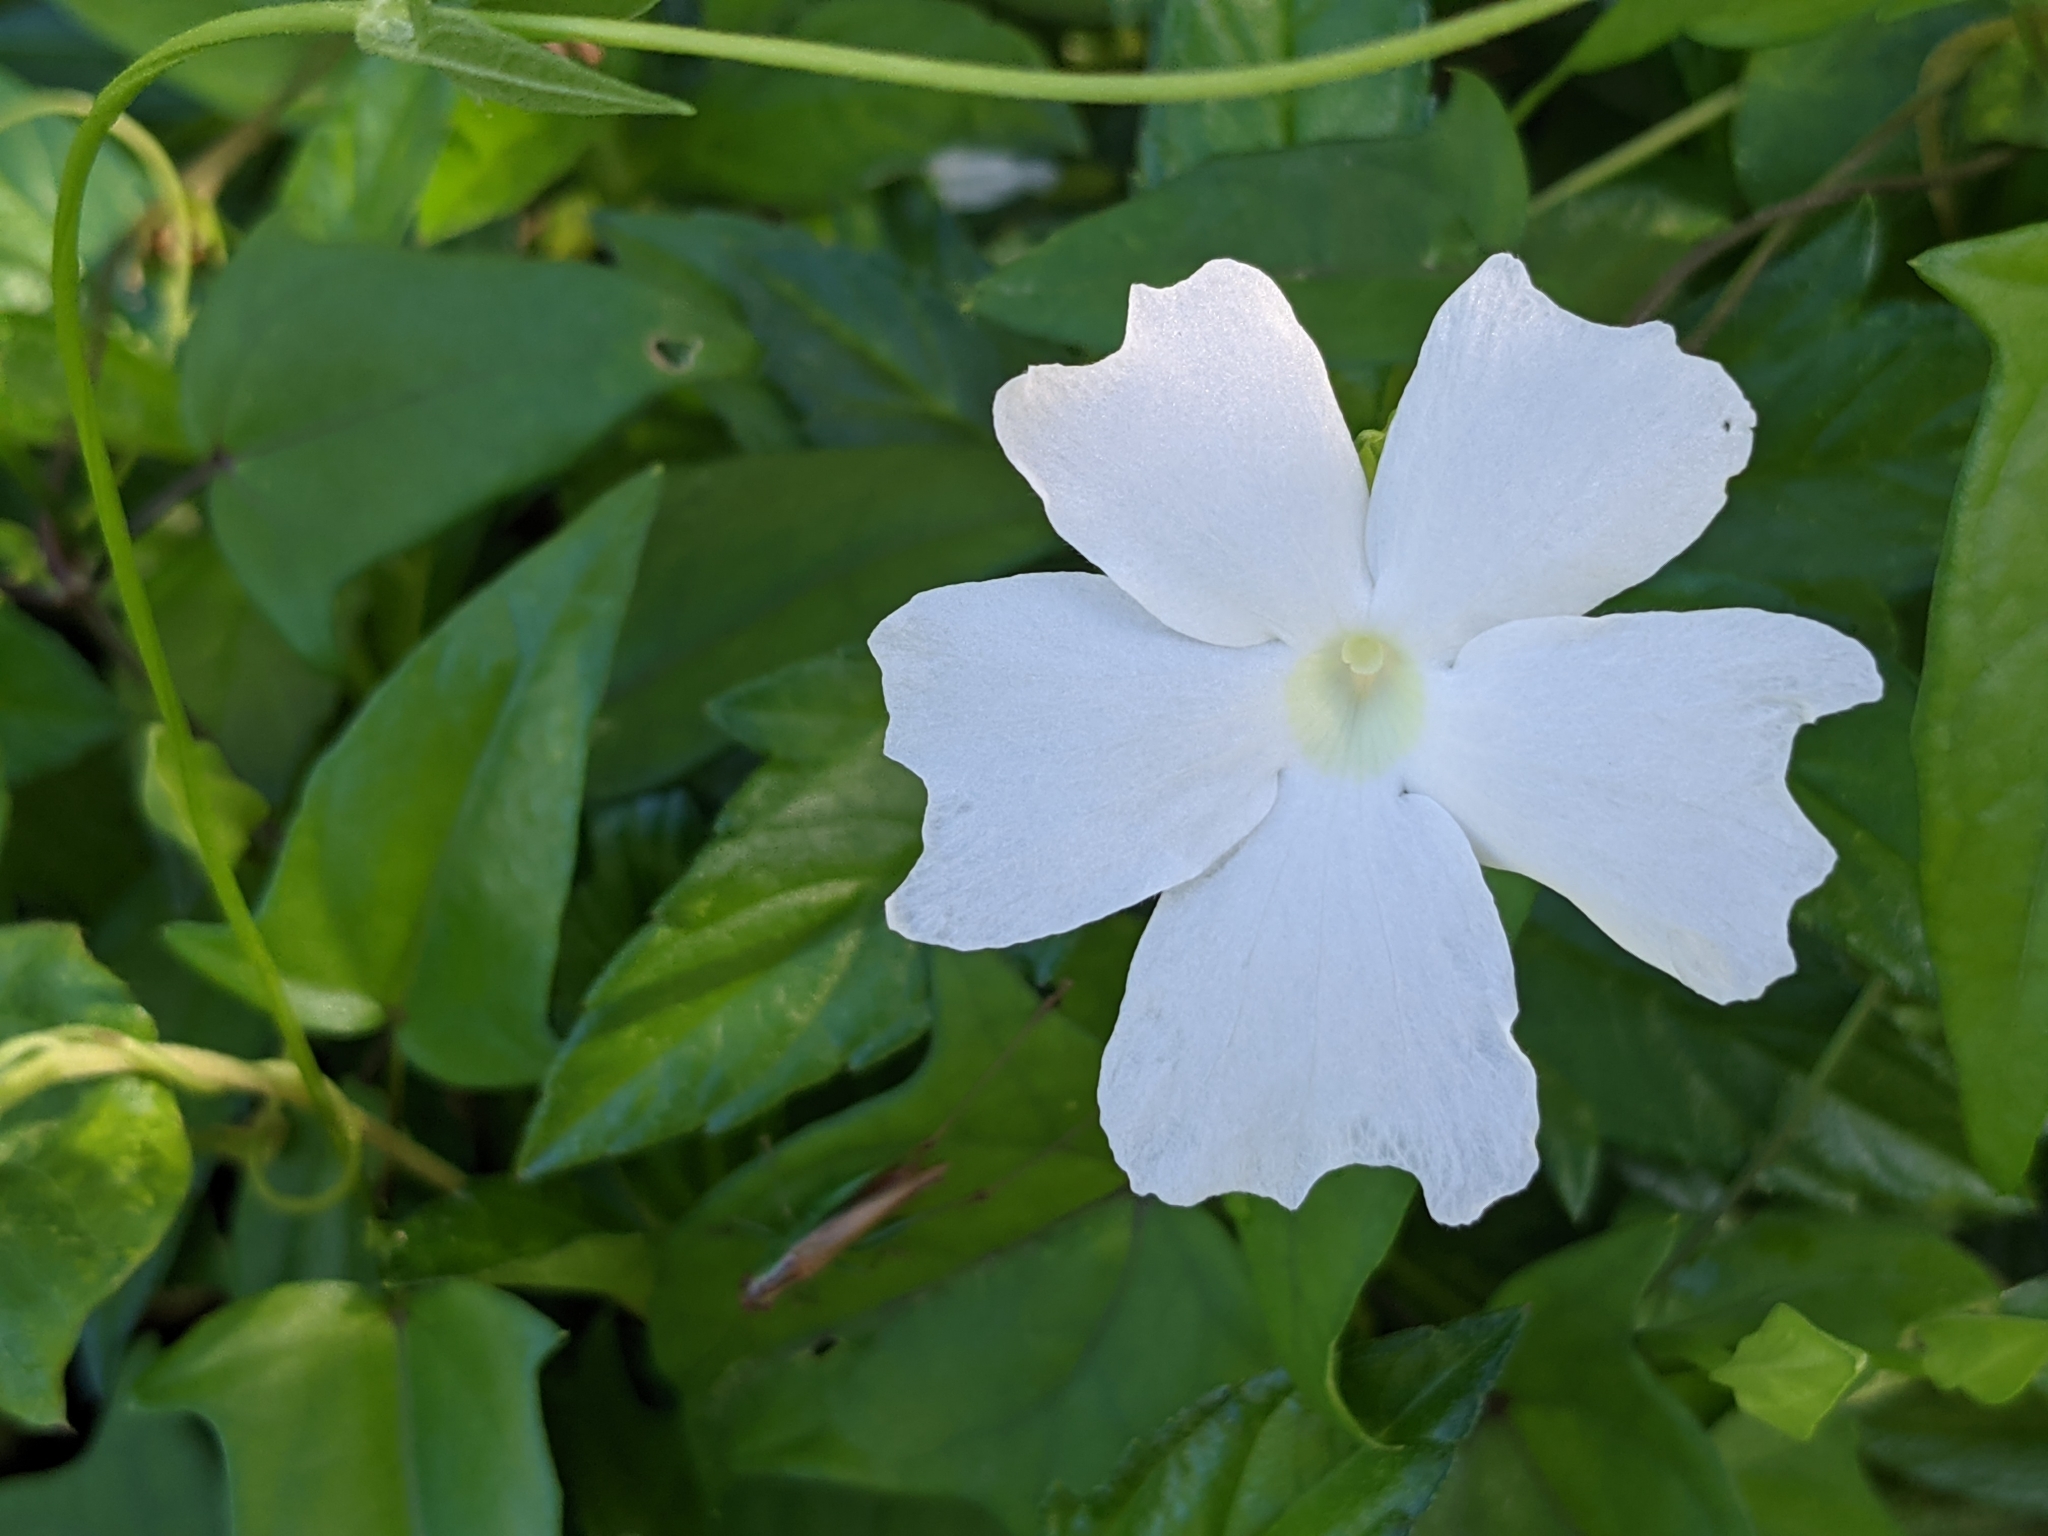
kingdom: Plantae
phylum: Tracheophyta
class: Magnoliopsida
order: Lamiales
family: Acanthaceae
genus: Thunbergia
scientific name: Thunbergia fragrans
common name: Whitelady
